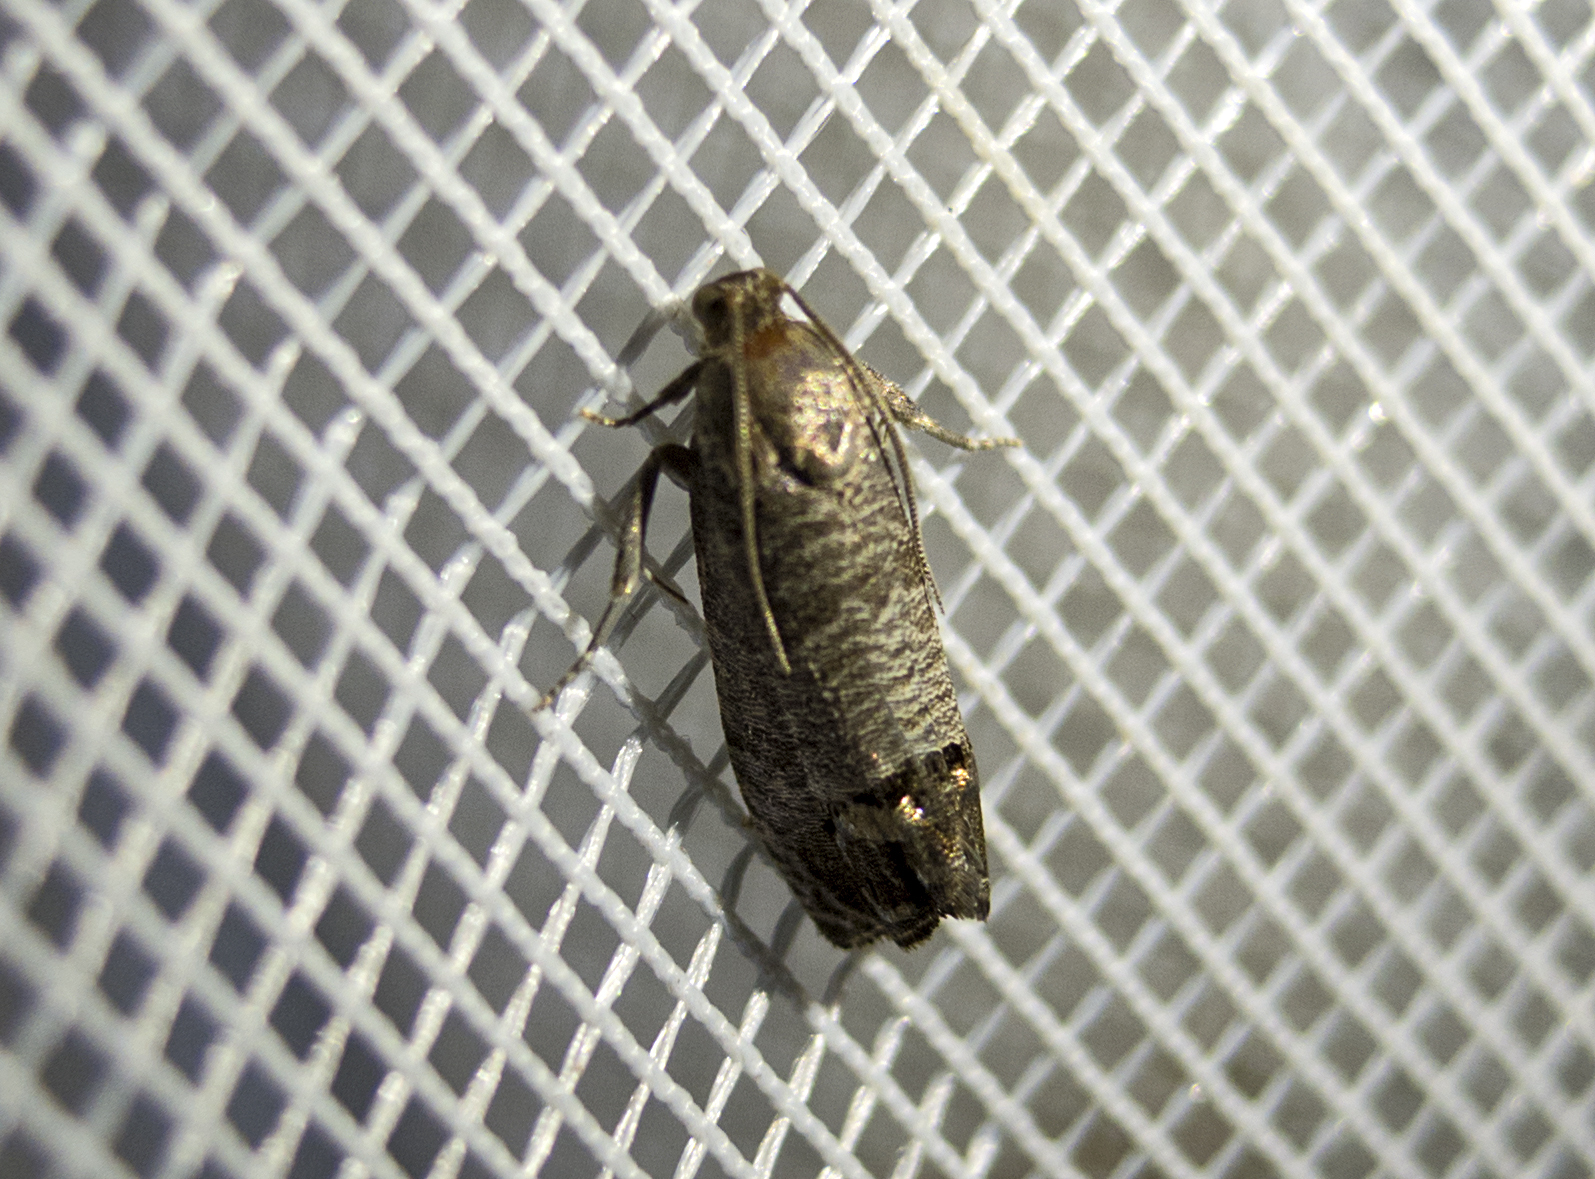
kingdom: Animalia
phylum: Arthropoda
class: Insecta
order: Lepidoptera
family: Tortricidae
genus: Cydia
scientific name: Cydia pomonella
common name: Codling moth
